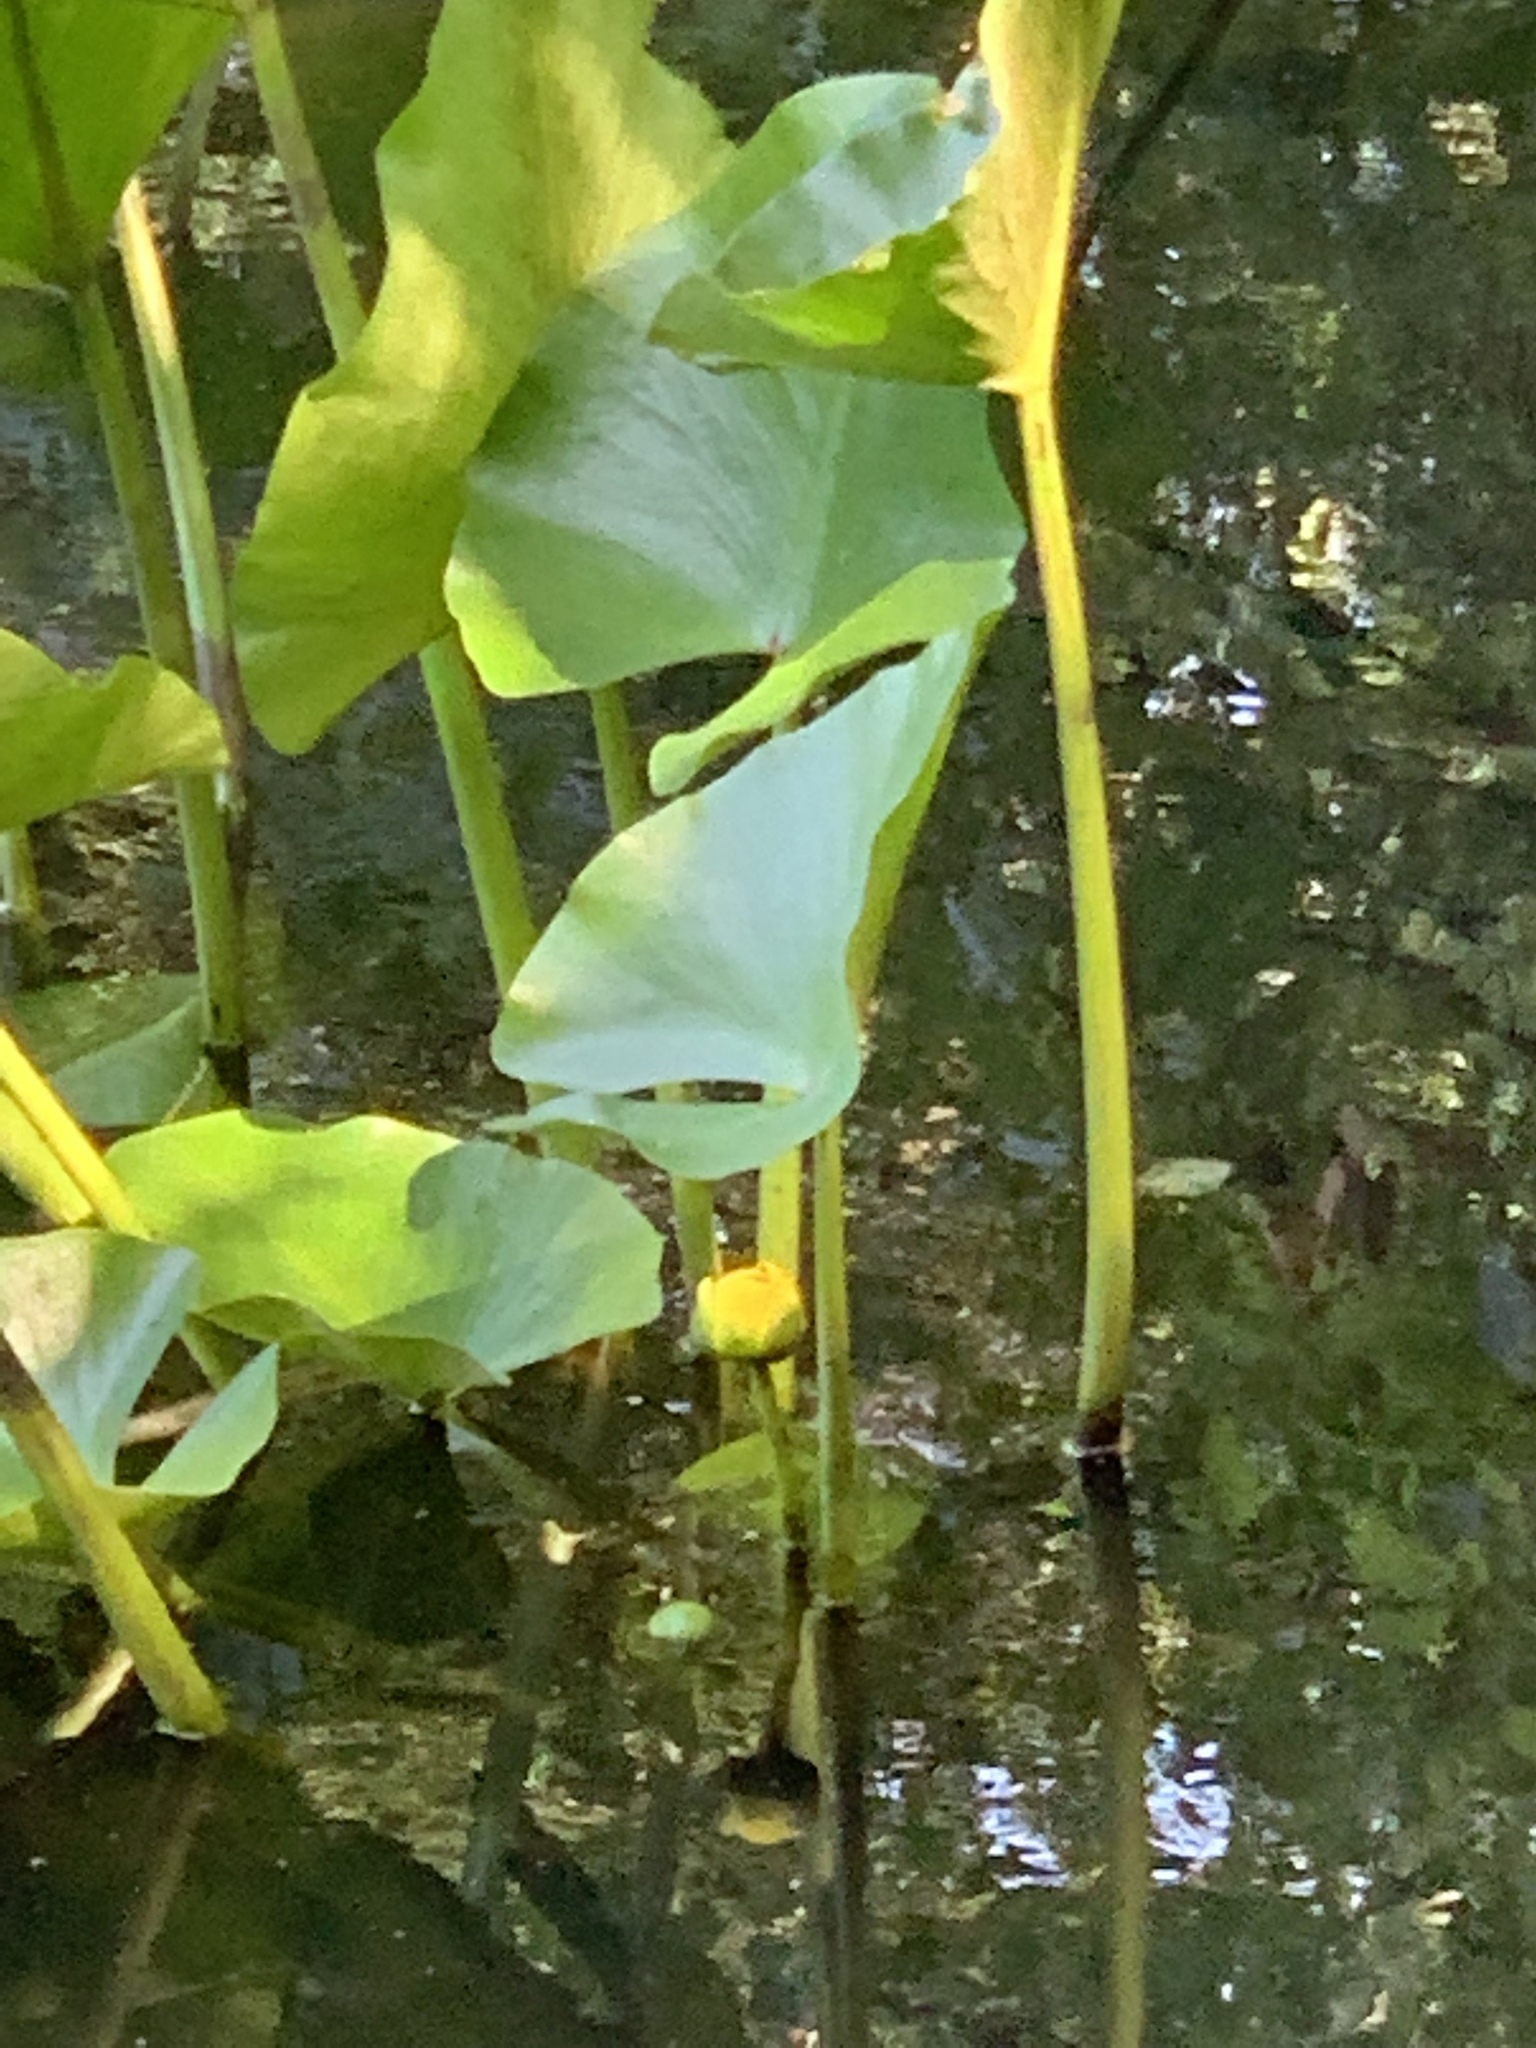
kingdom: Plantae
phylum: Tracheophyta
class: Magnoliopsida
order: Nymphaeales
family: Nymphaeaceae
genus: Nuphar
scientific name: Nuphar advena
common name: Spatter-dock
